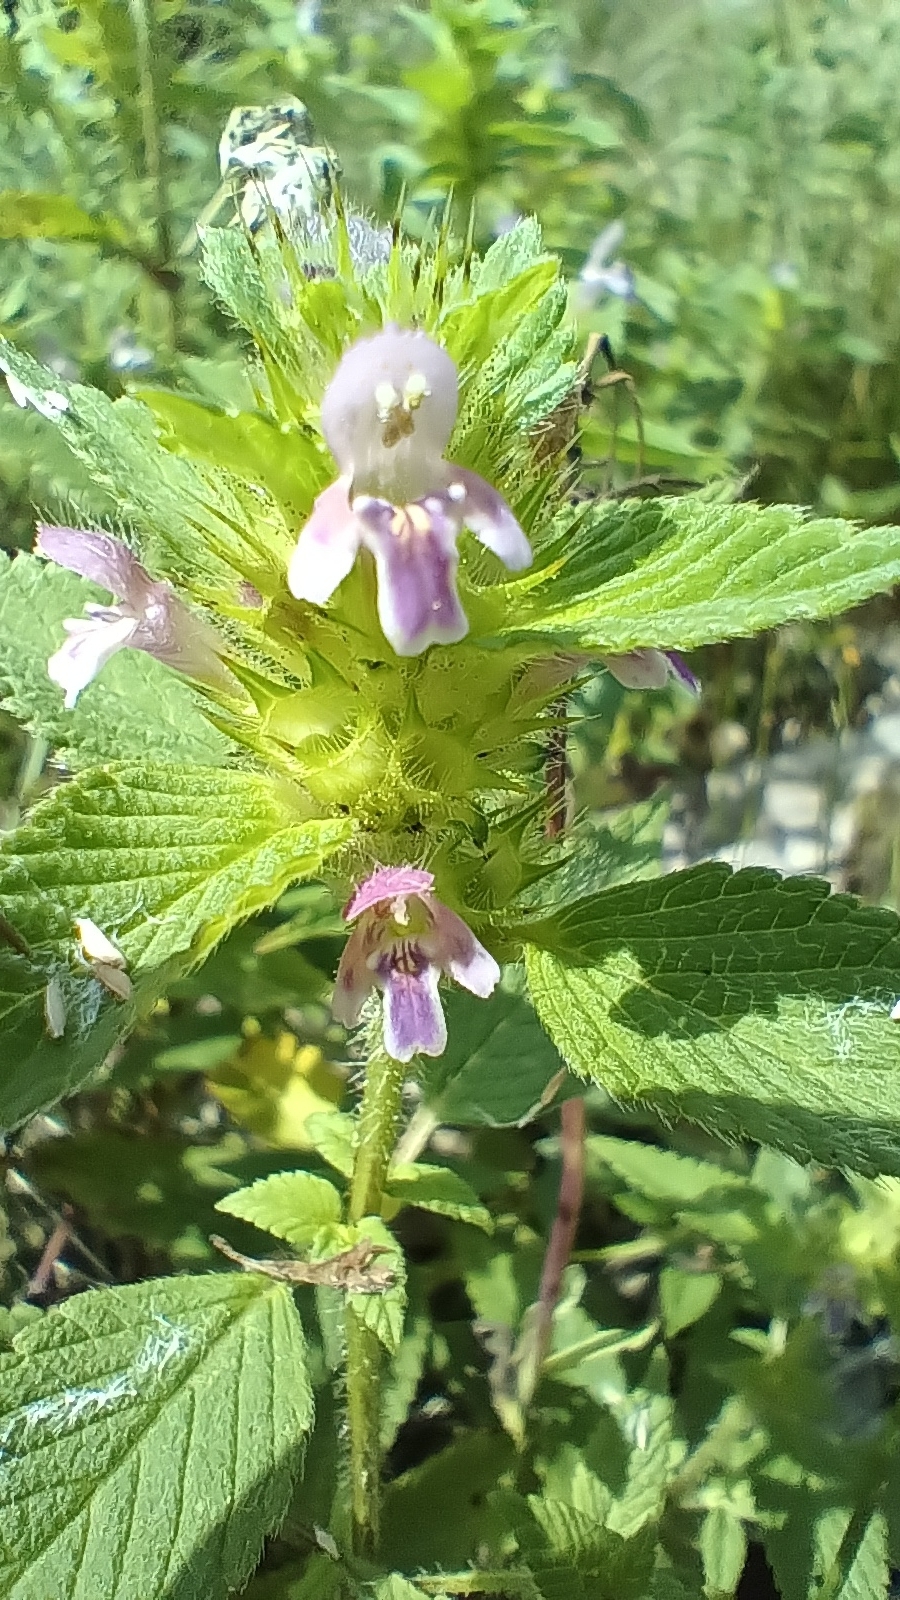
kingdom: Plantae
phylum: Tracheophyta
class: Magnoliopsida
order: Lamiales
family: Lamiaceae
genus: Galeopsis
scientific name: Galeopsis bifida
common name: Bifid hemp-nettle
